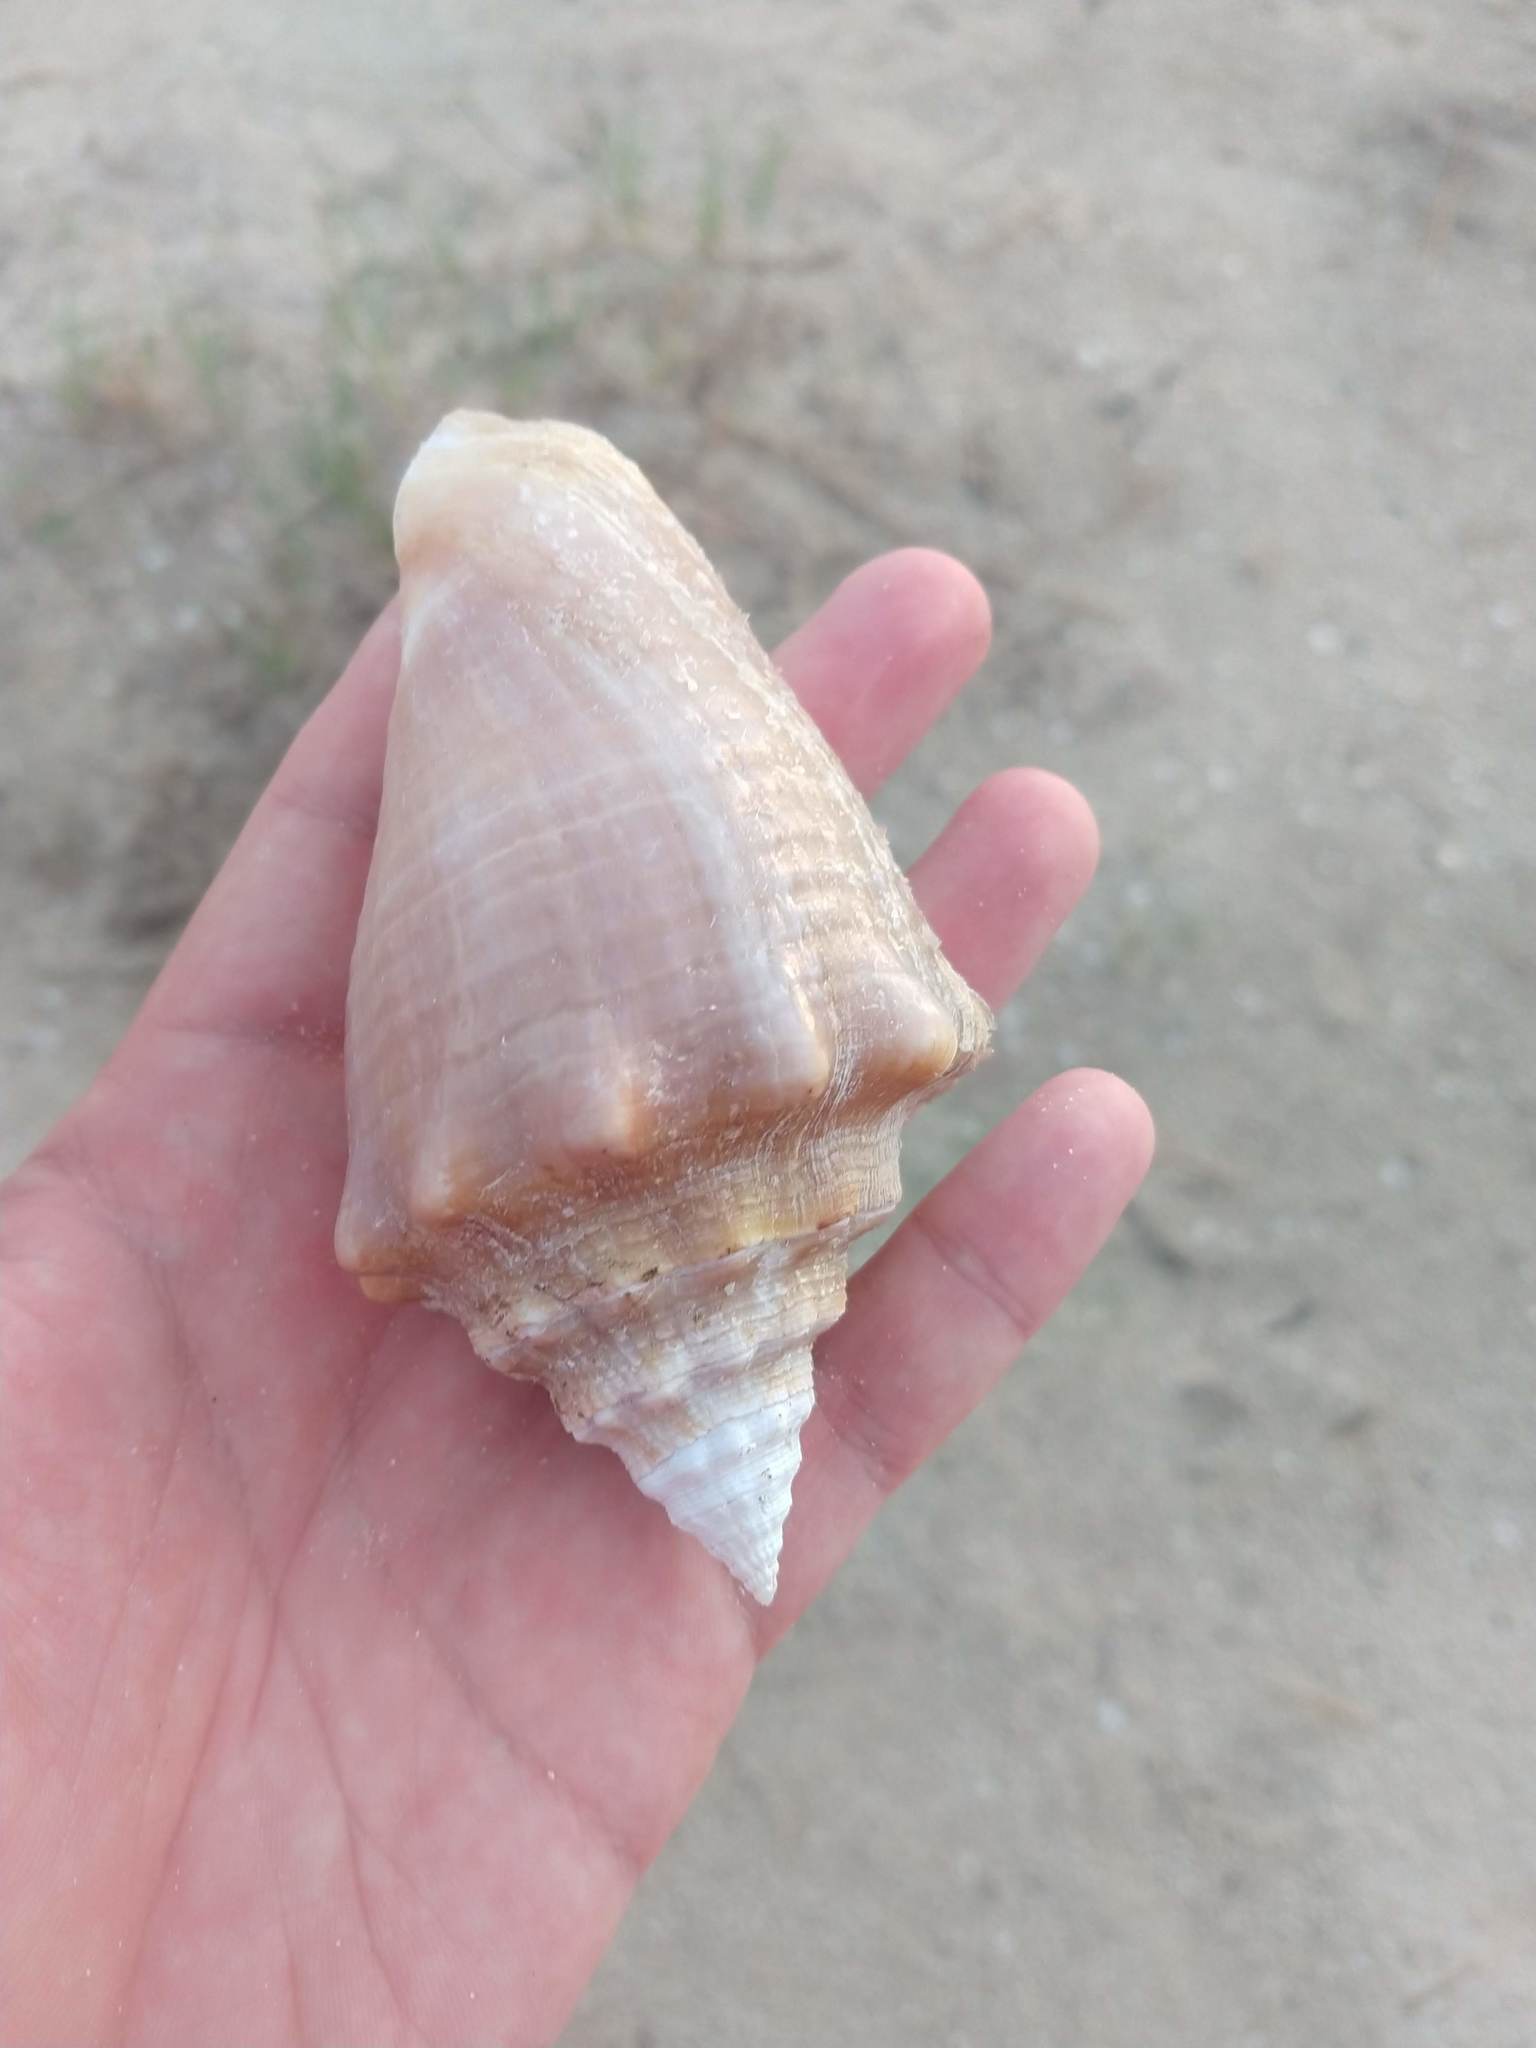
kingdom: Animalia
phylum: Mollusca
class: Gastropoda
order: Littorinimorpha
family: Strombidae
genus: Macrostrombus
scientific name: Macrostrombus costatus
